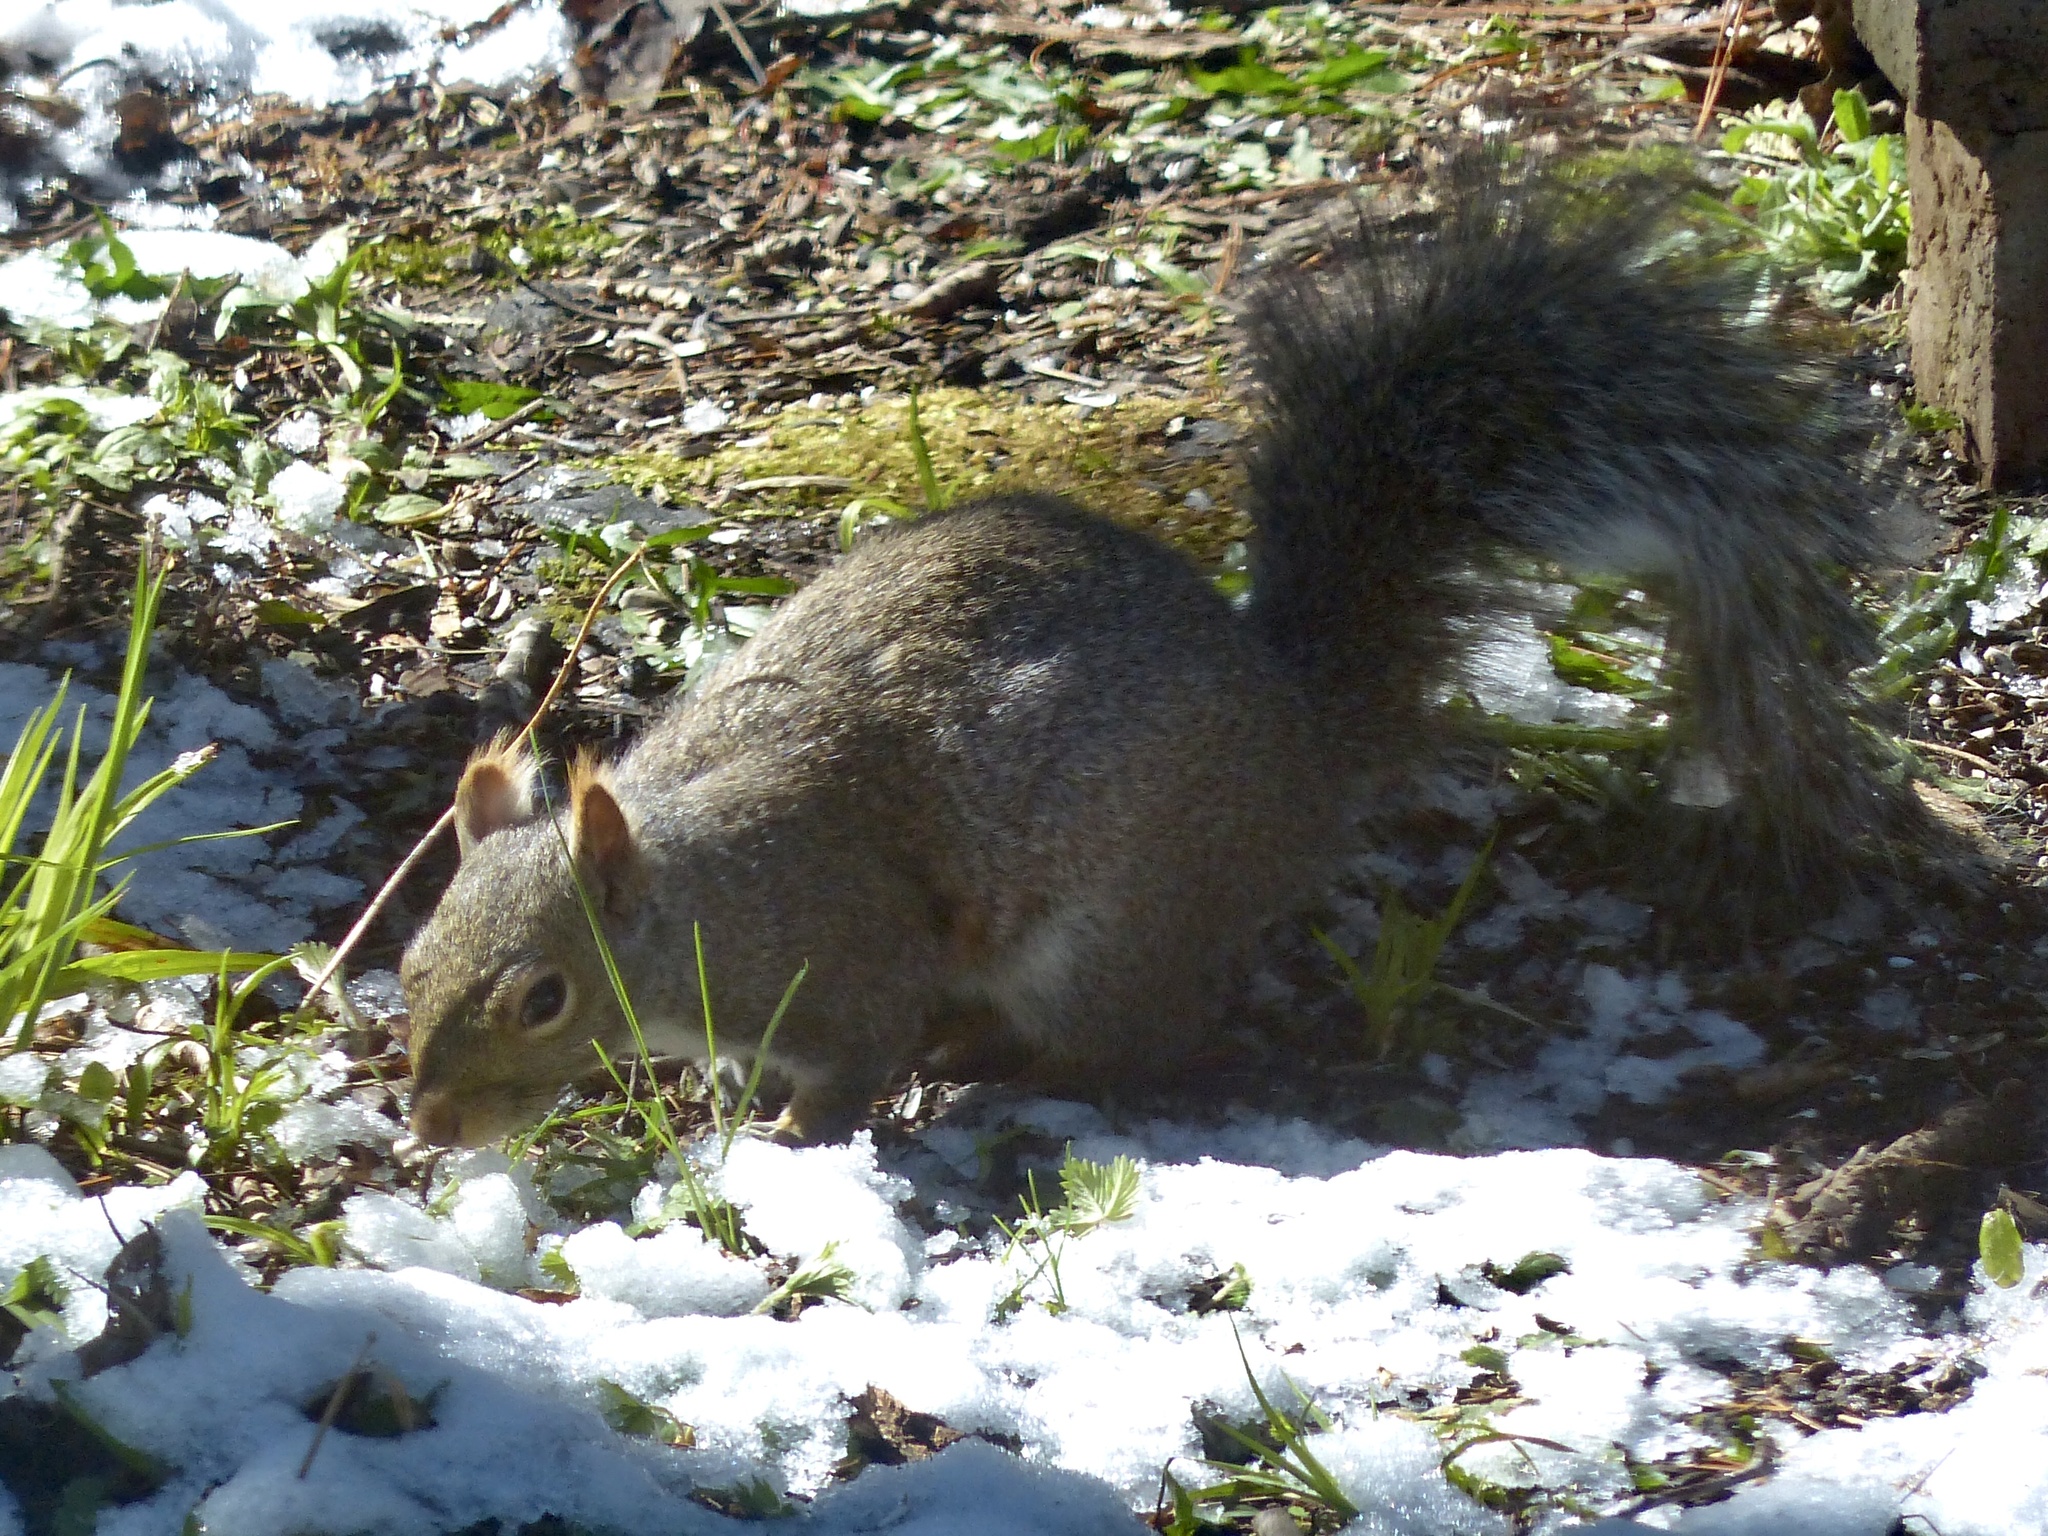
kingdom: Animalia
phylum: Chordata
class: Mammalia
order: Rodentia
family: Sciuridae
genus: Sciurus
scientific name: Sciurus carolinensis
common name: Eastern gray squirrel
